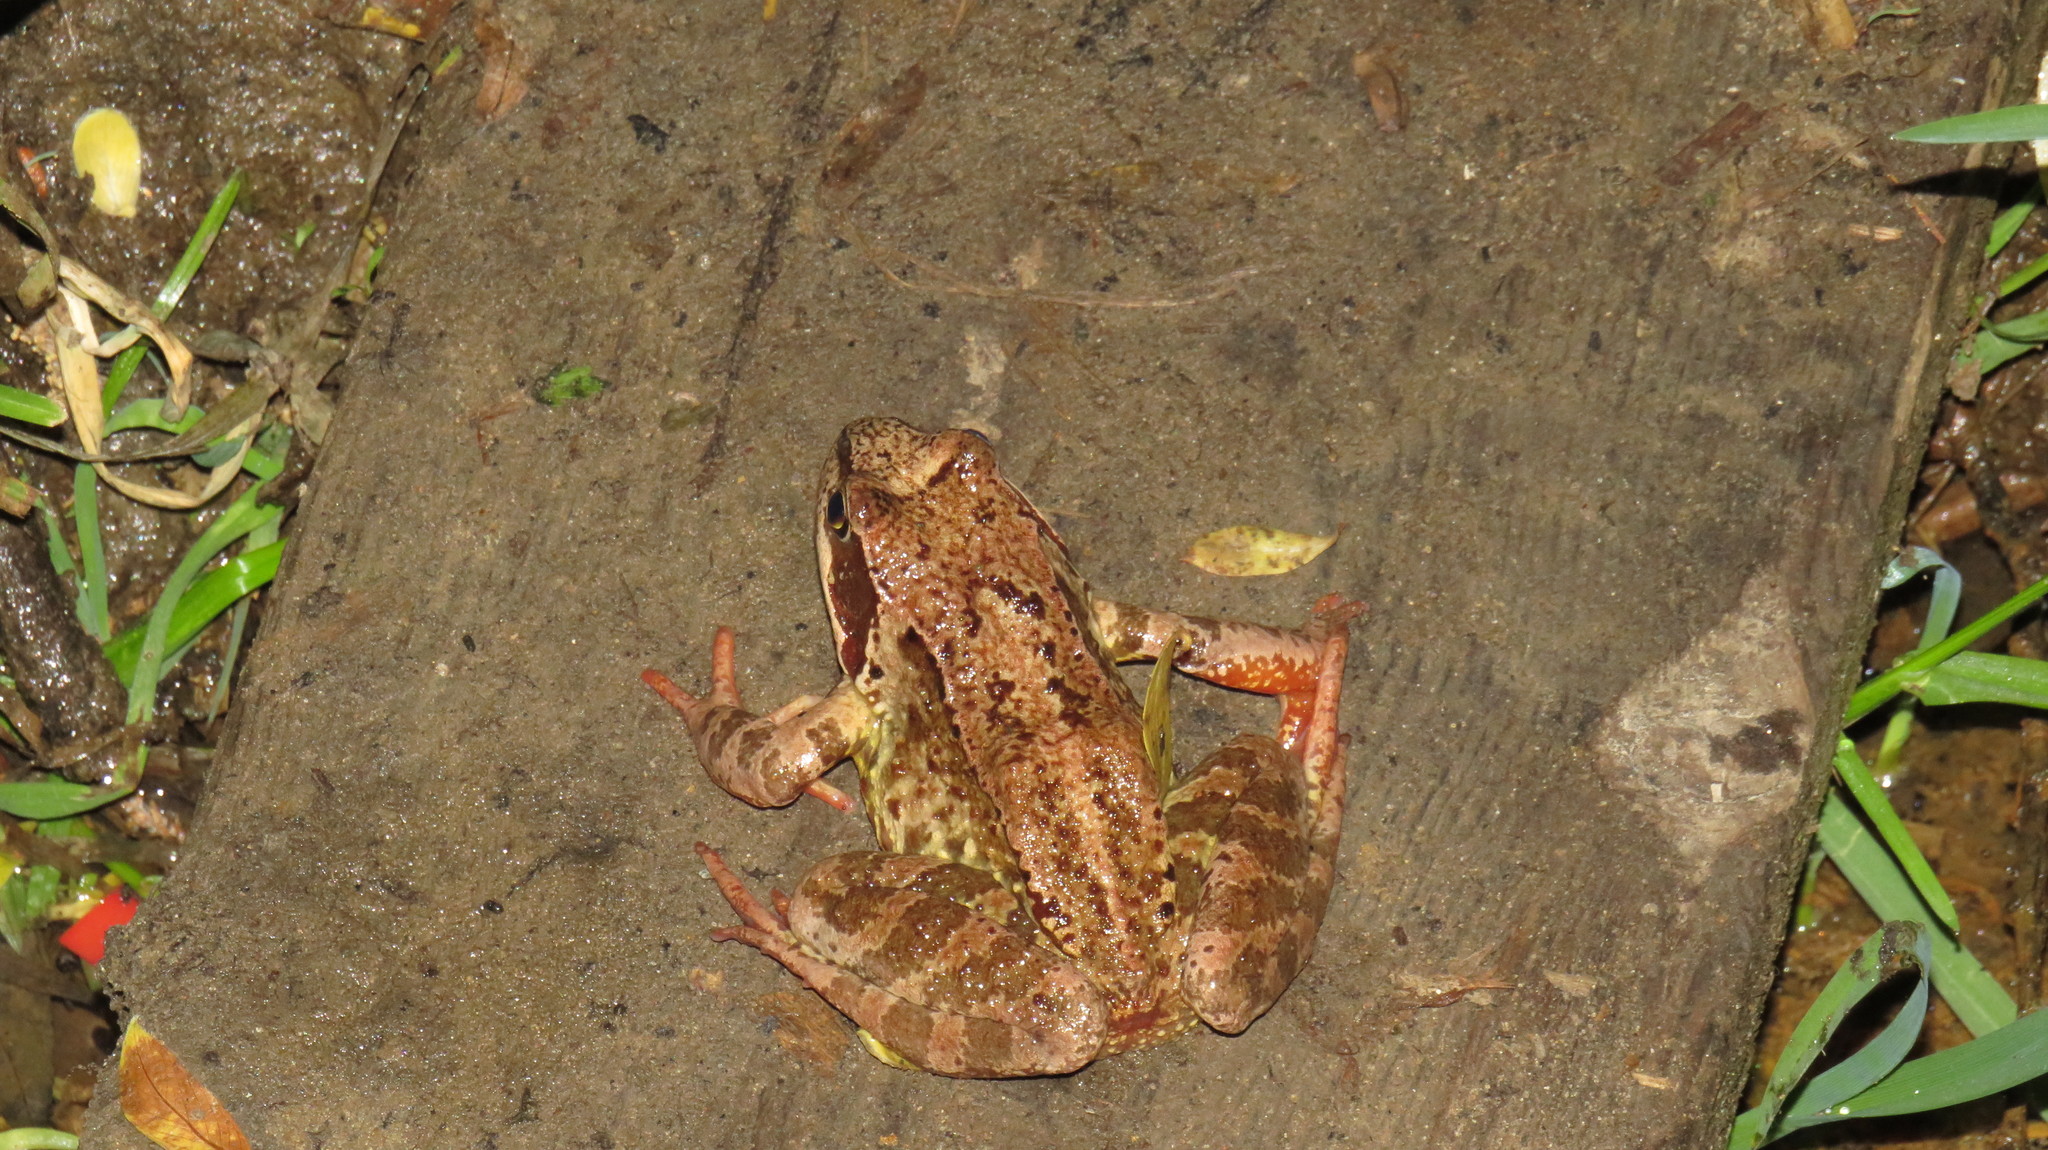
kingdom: Animalia
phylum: Chordata
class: Amphibia
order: Anura
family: Ranidae
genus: Rana
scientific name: Rana temporaria
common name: Common frog
